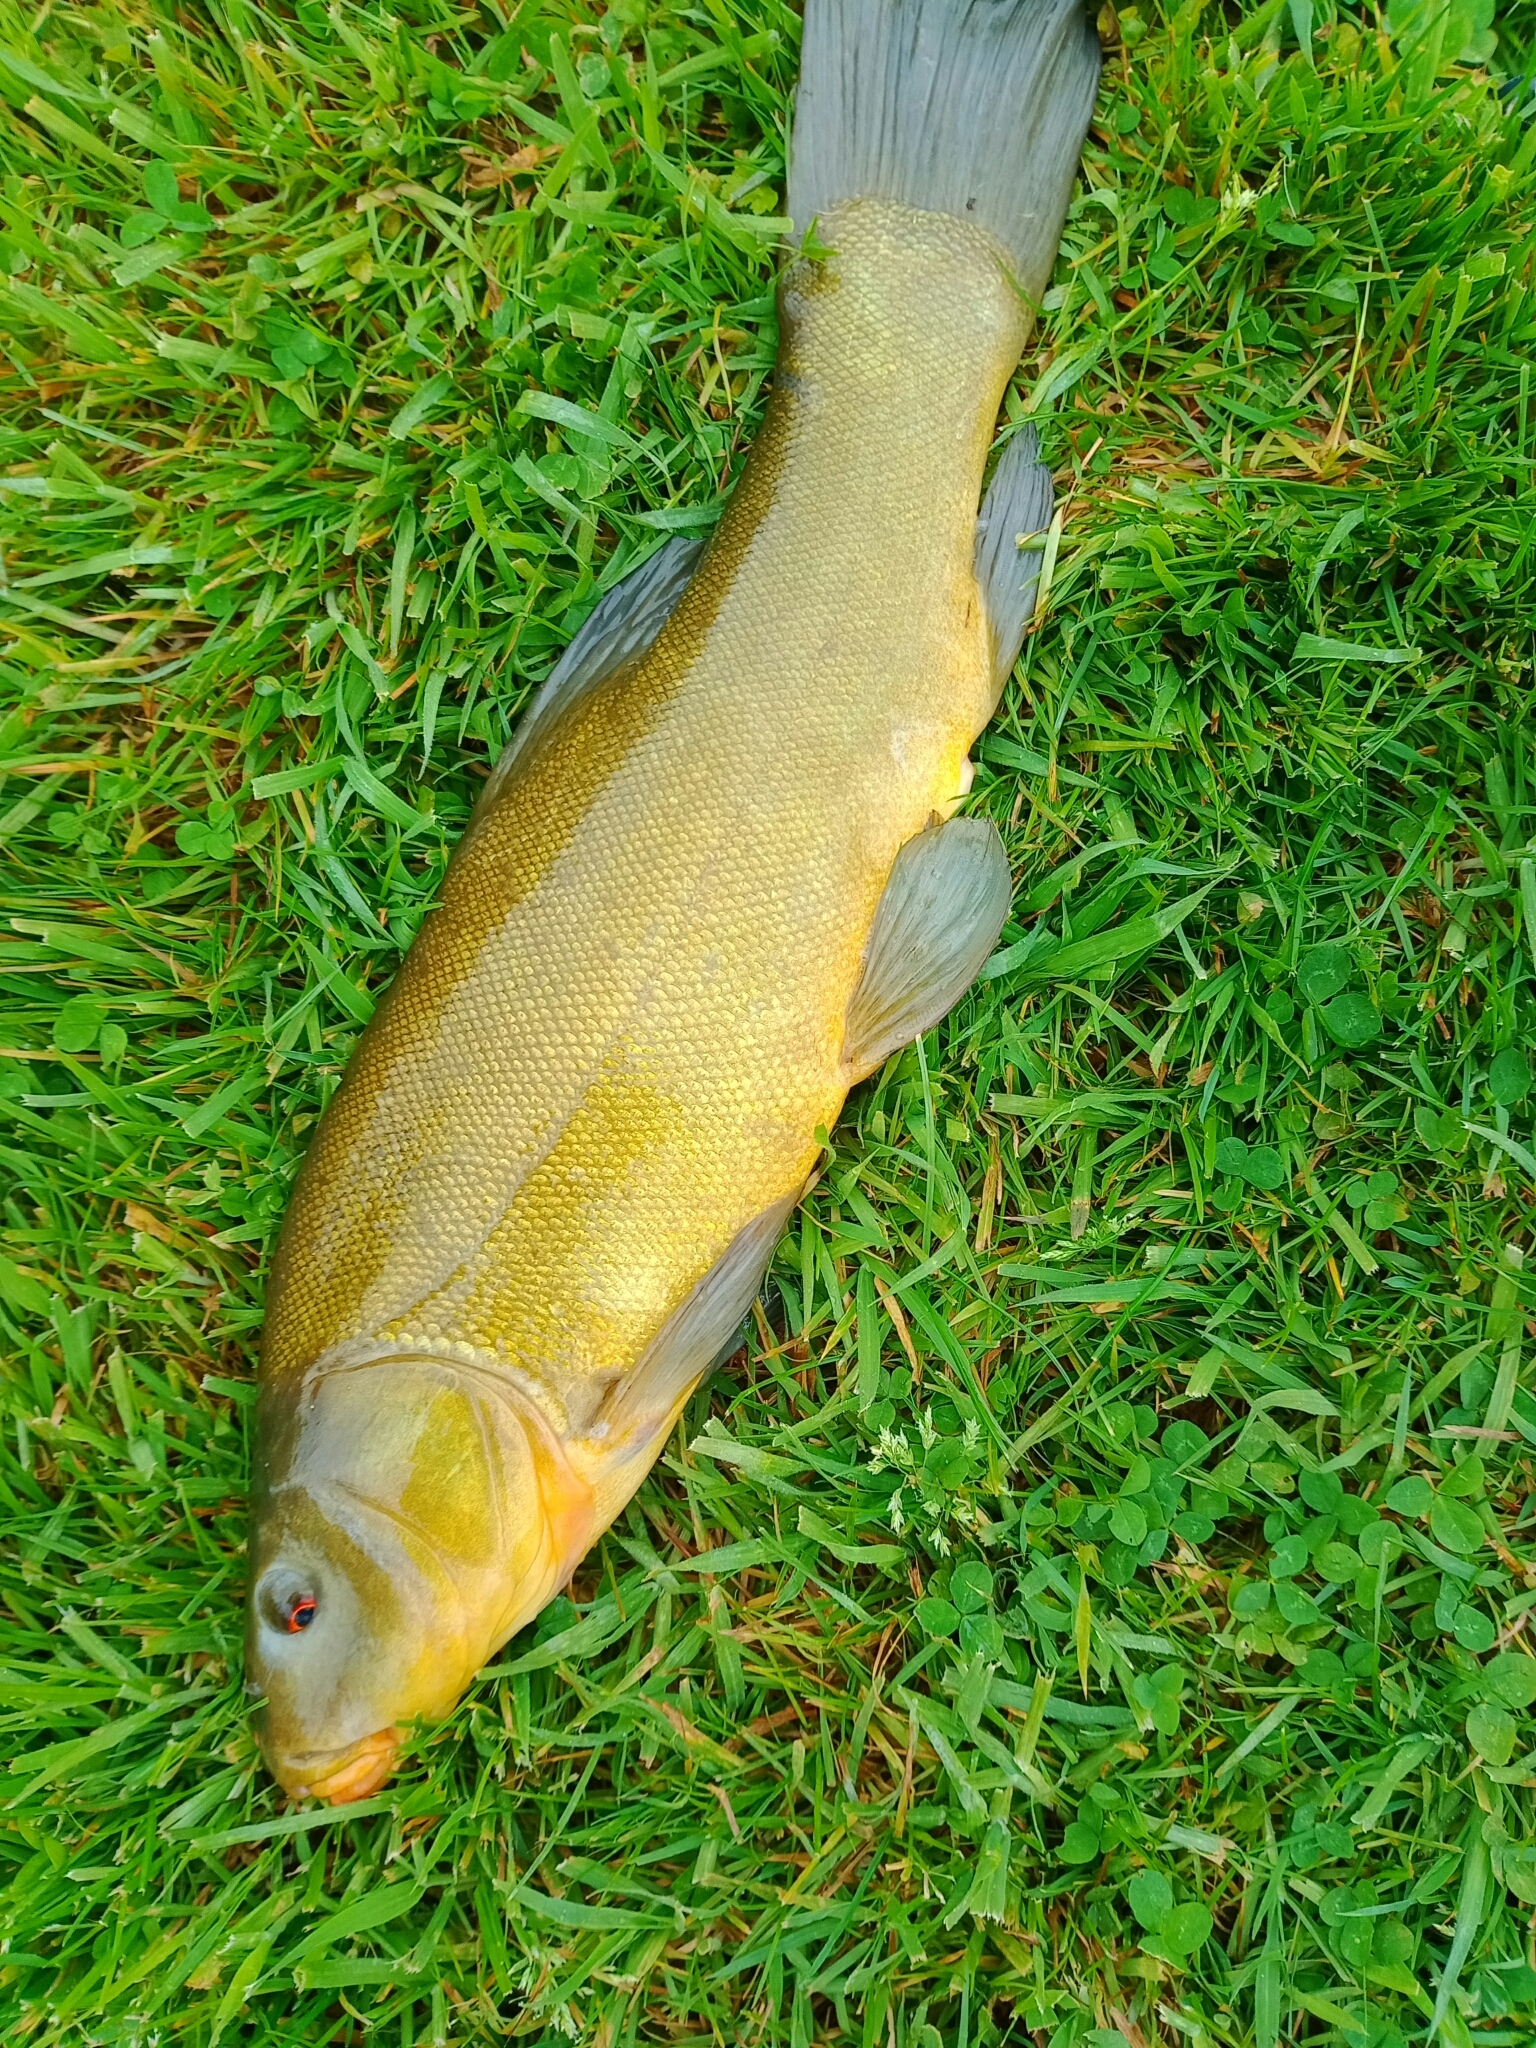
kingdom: Animalia
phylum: Chordata
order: Cypriniformes
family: Cyprinidae
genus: Tinca
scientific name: Tinca tinca
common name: Tench
